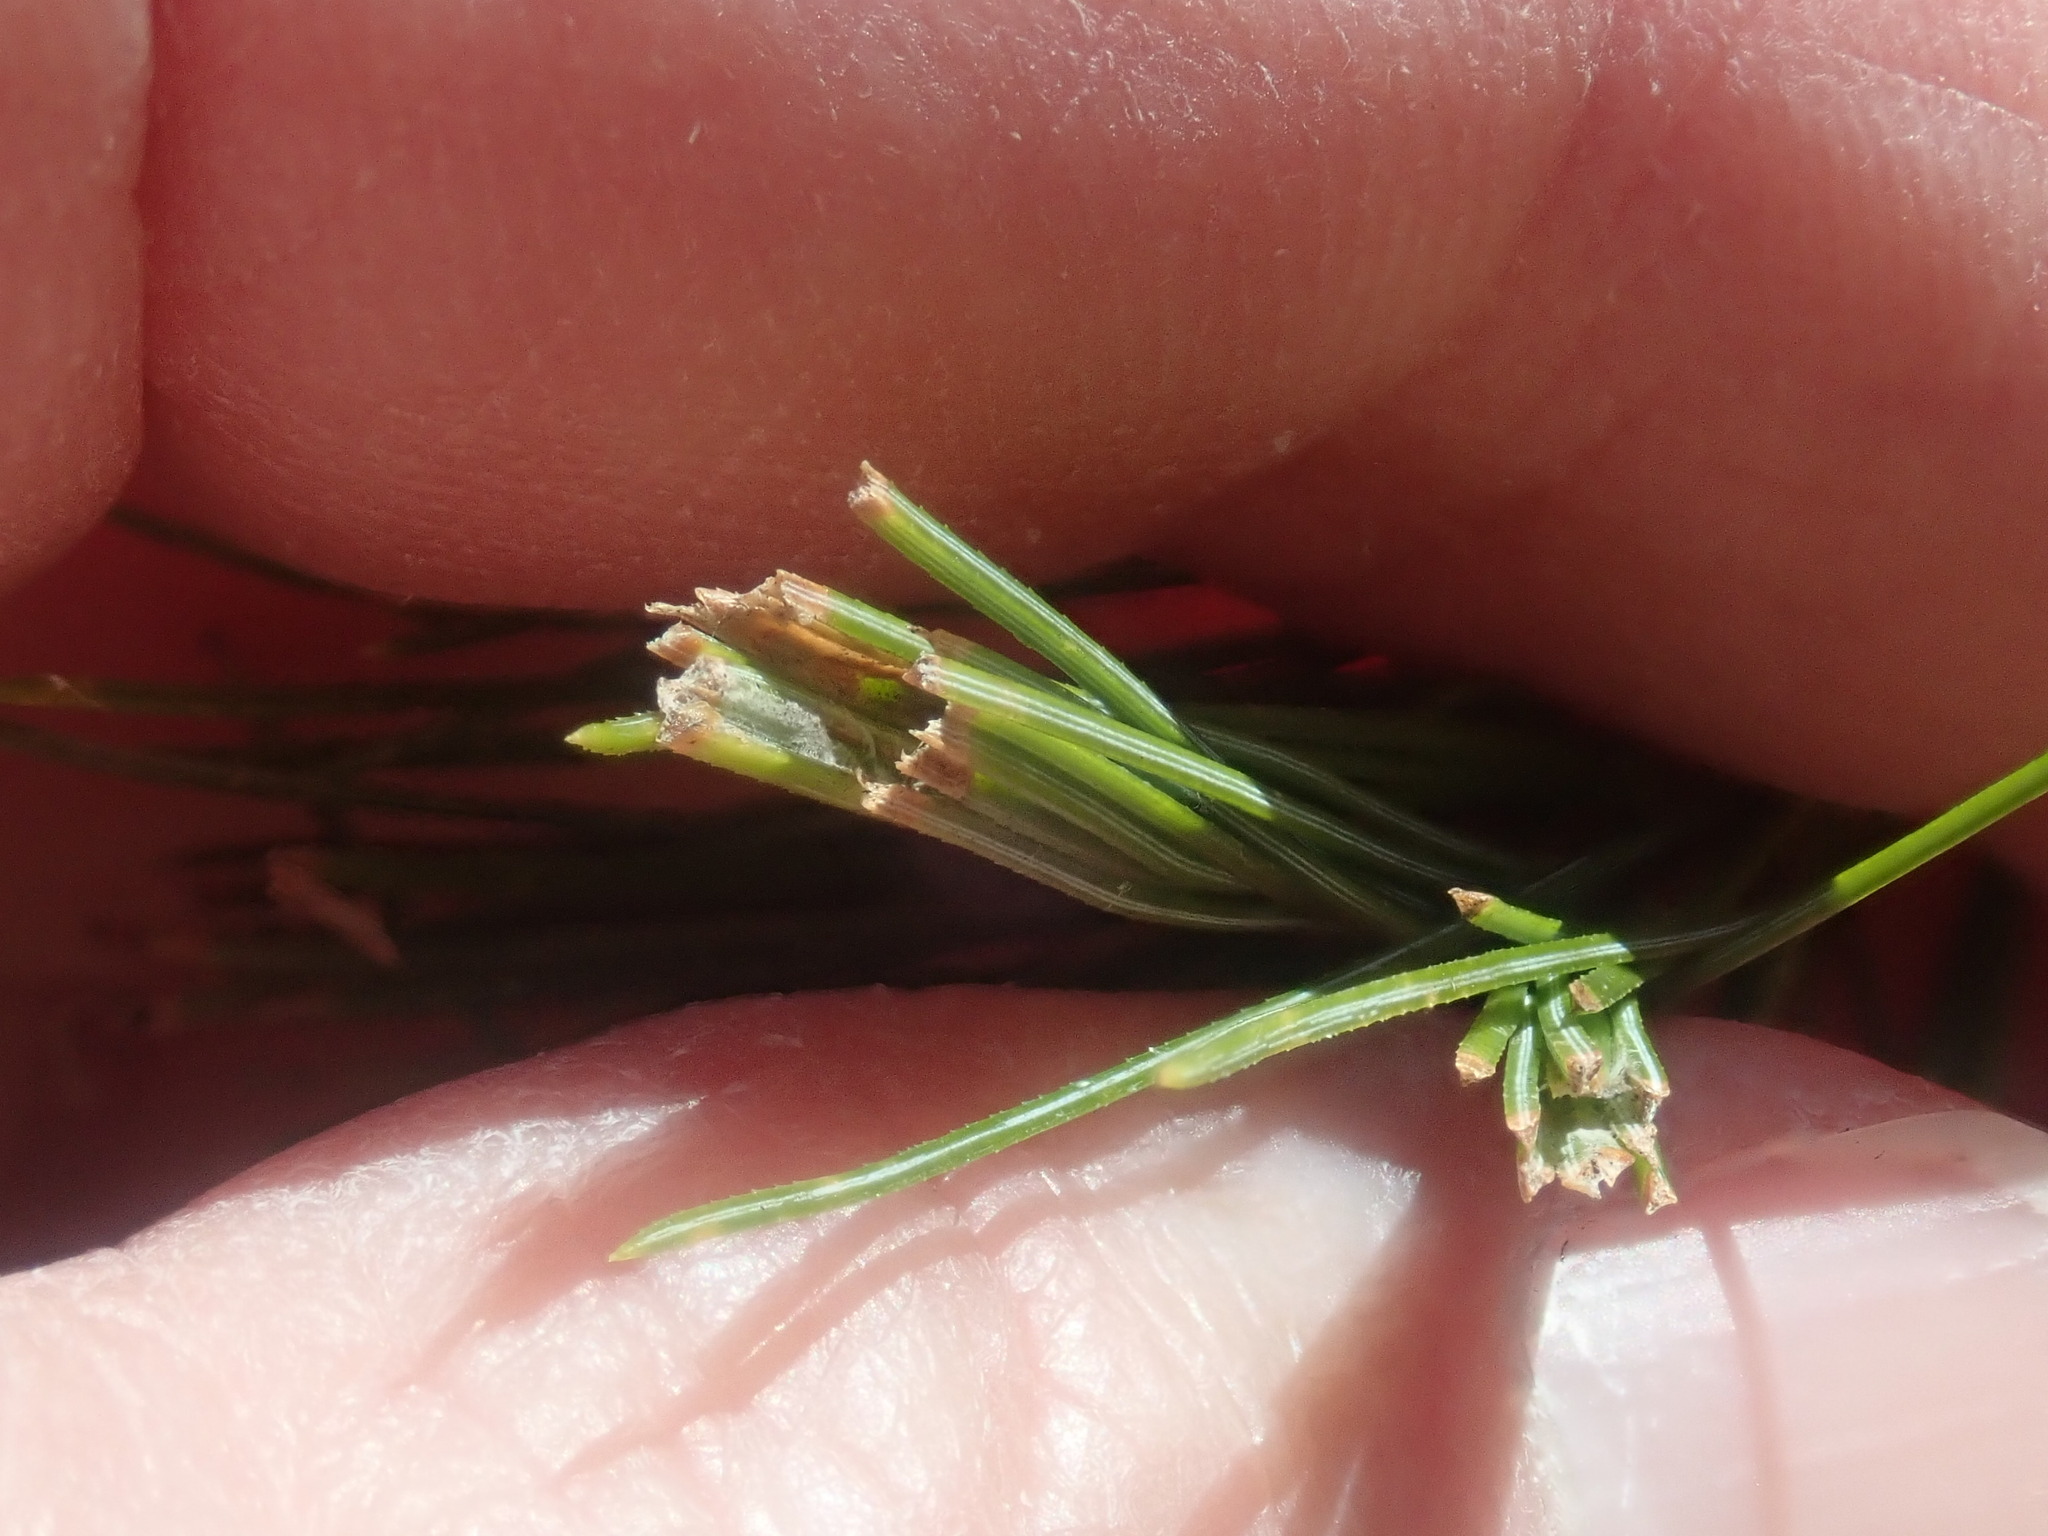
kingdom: Animalia
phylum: Arthropoda
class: Insecta
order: Lepidoptera
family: Tortricidae
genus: Argyrotaenia
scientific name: Argyrotaenia pinatubana
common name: Pine tube moth
